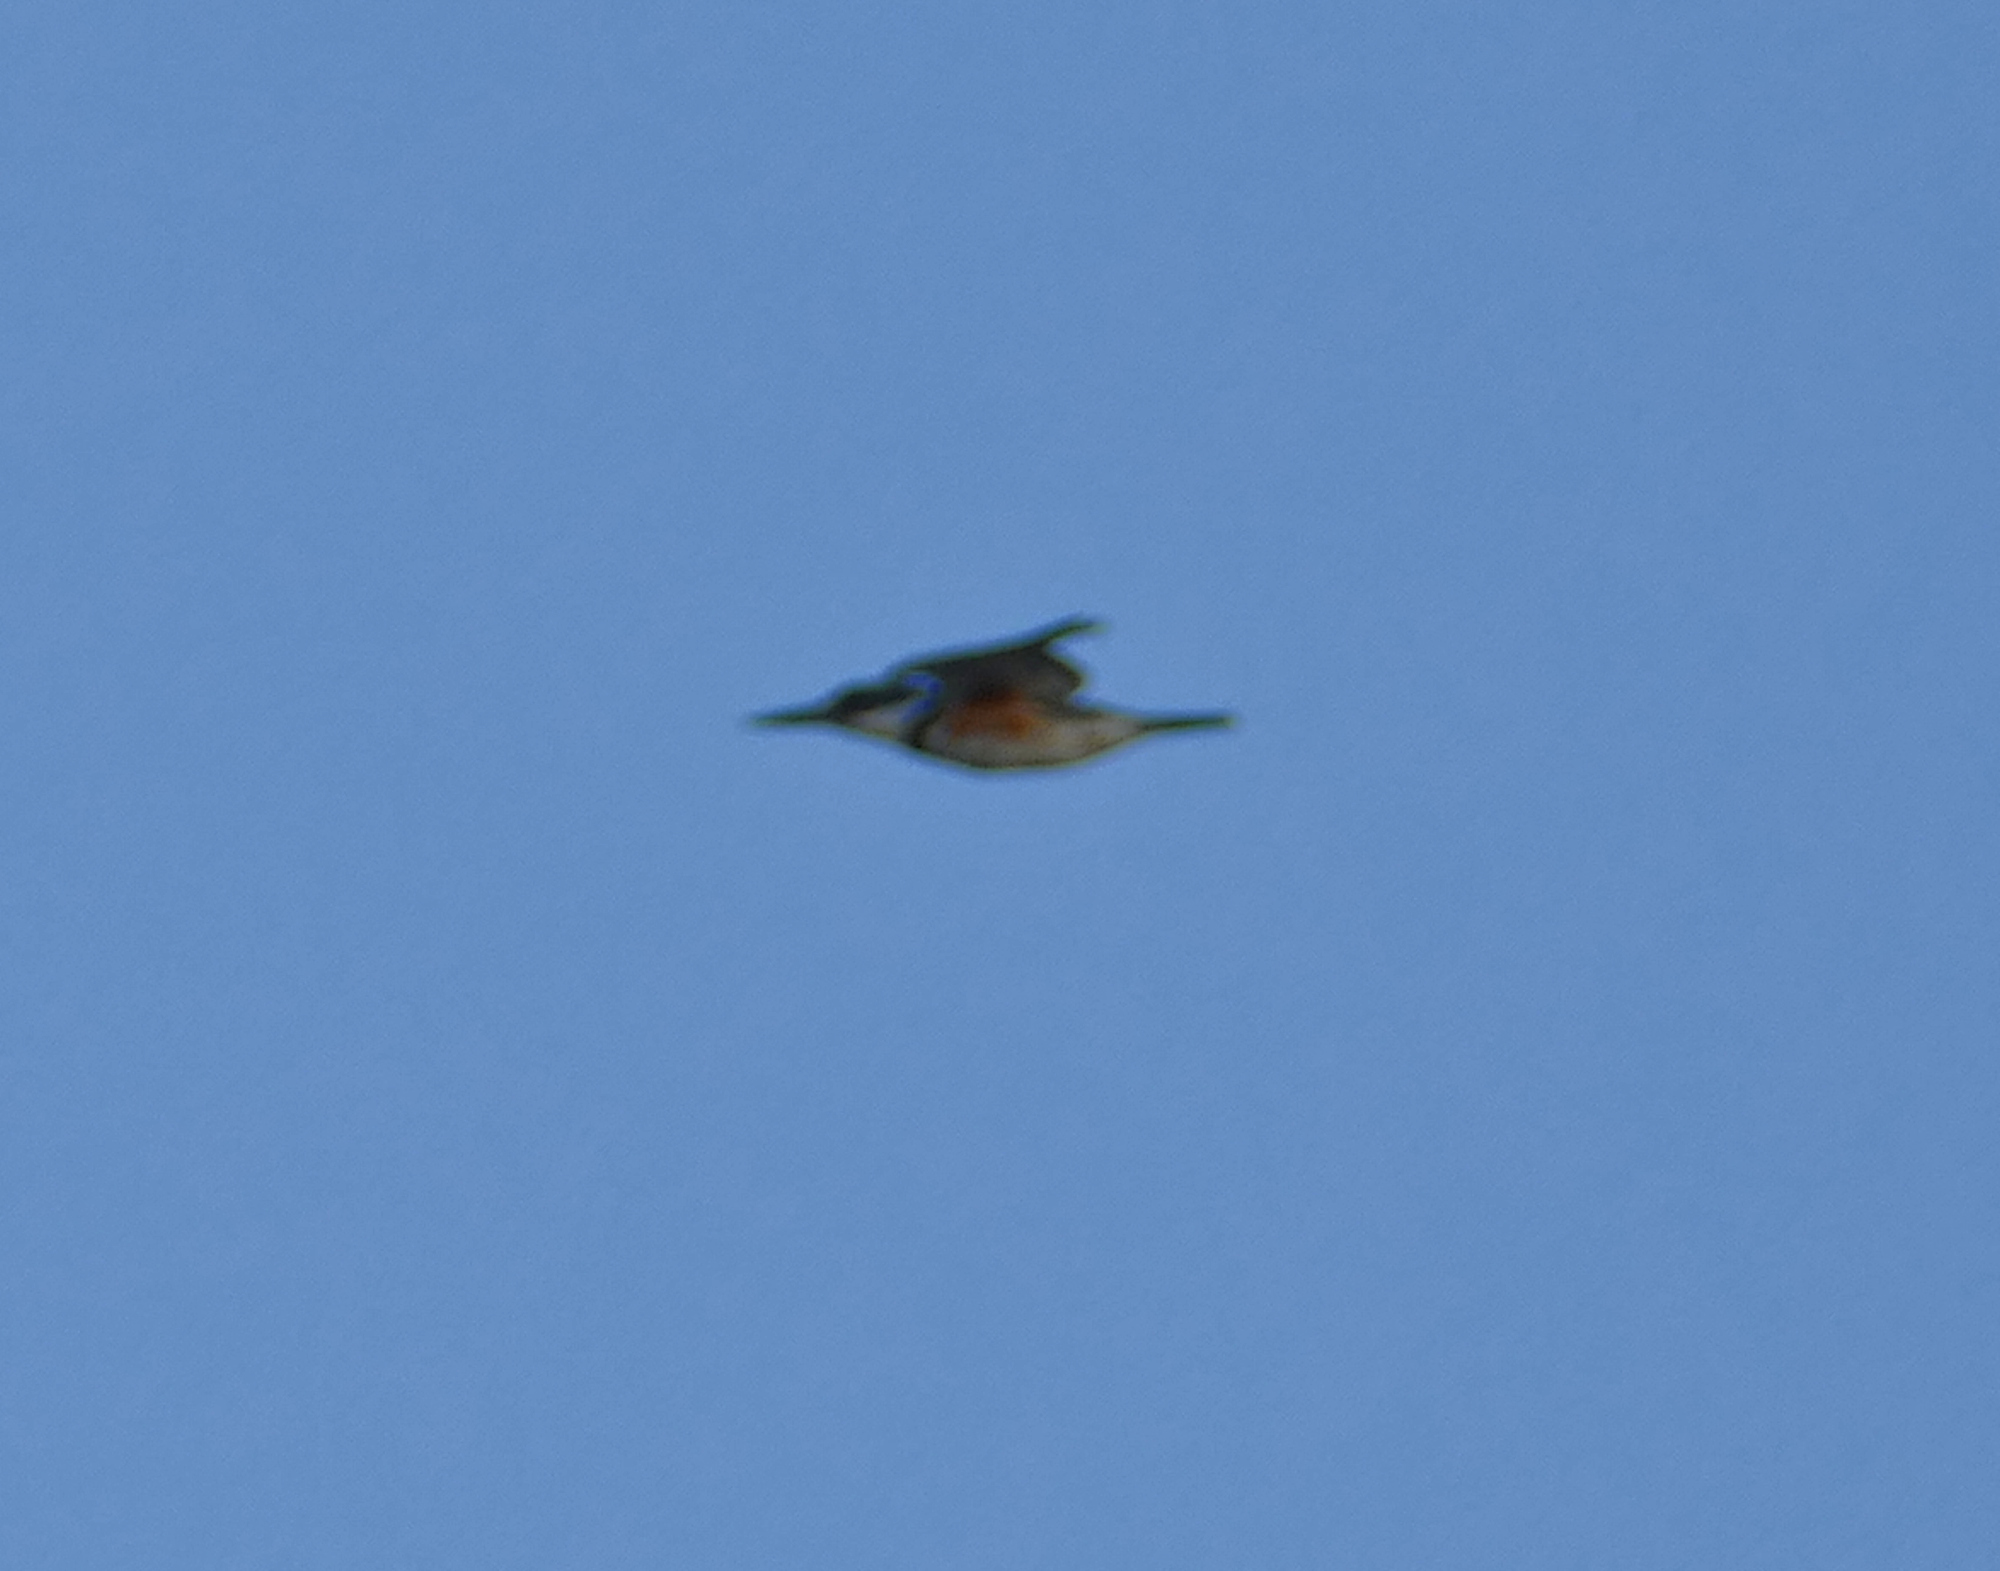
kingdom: Animalia
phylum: Chordata
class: Aves
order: Coraciiformes
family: Alcedinidae
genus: Megaceryle
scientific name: Megaceryle alcyon
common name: Belted kingfisher
